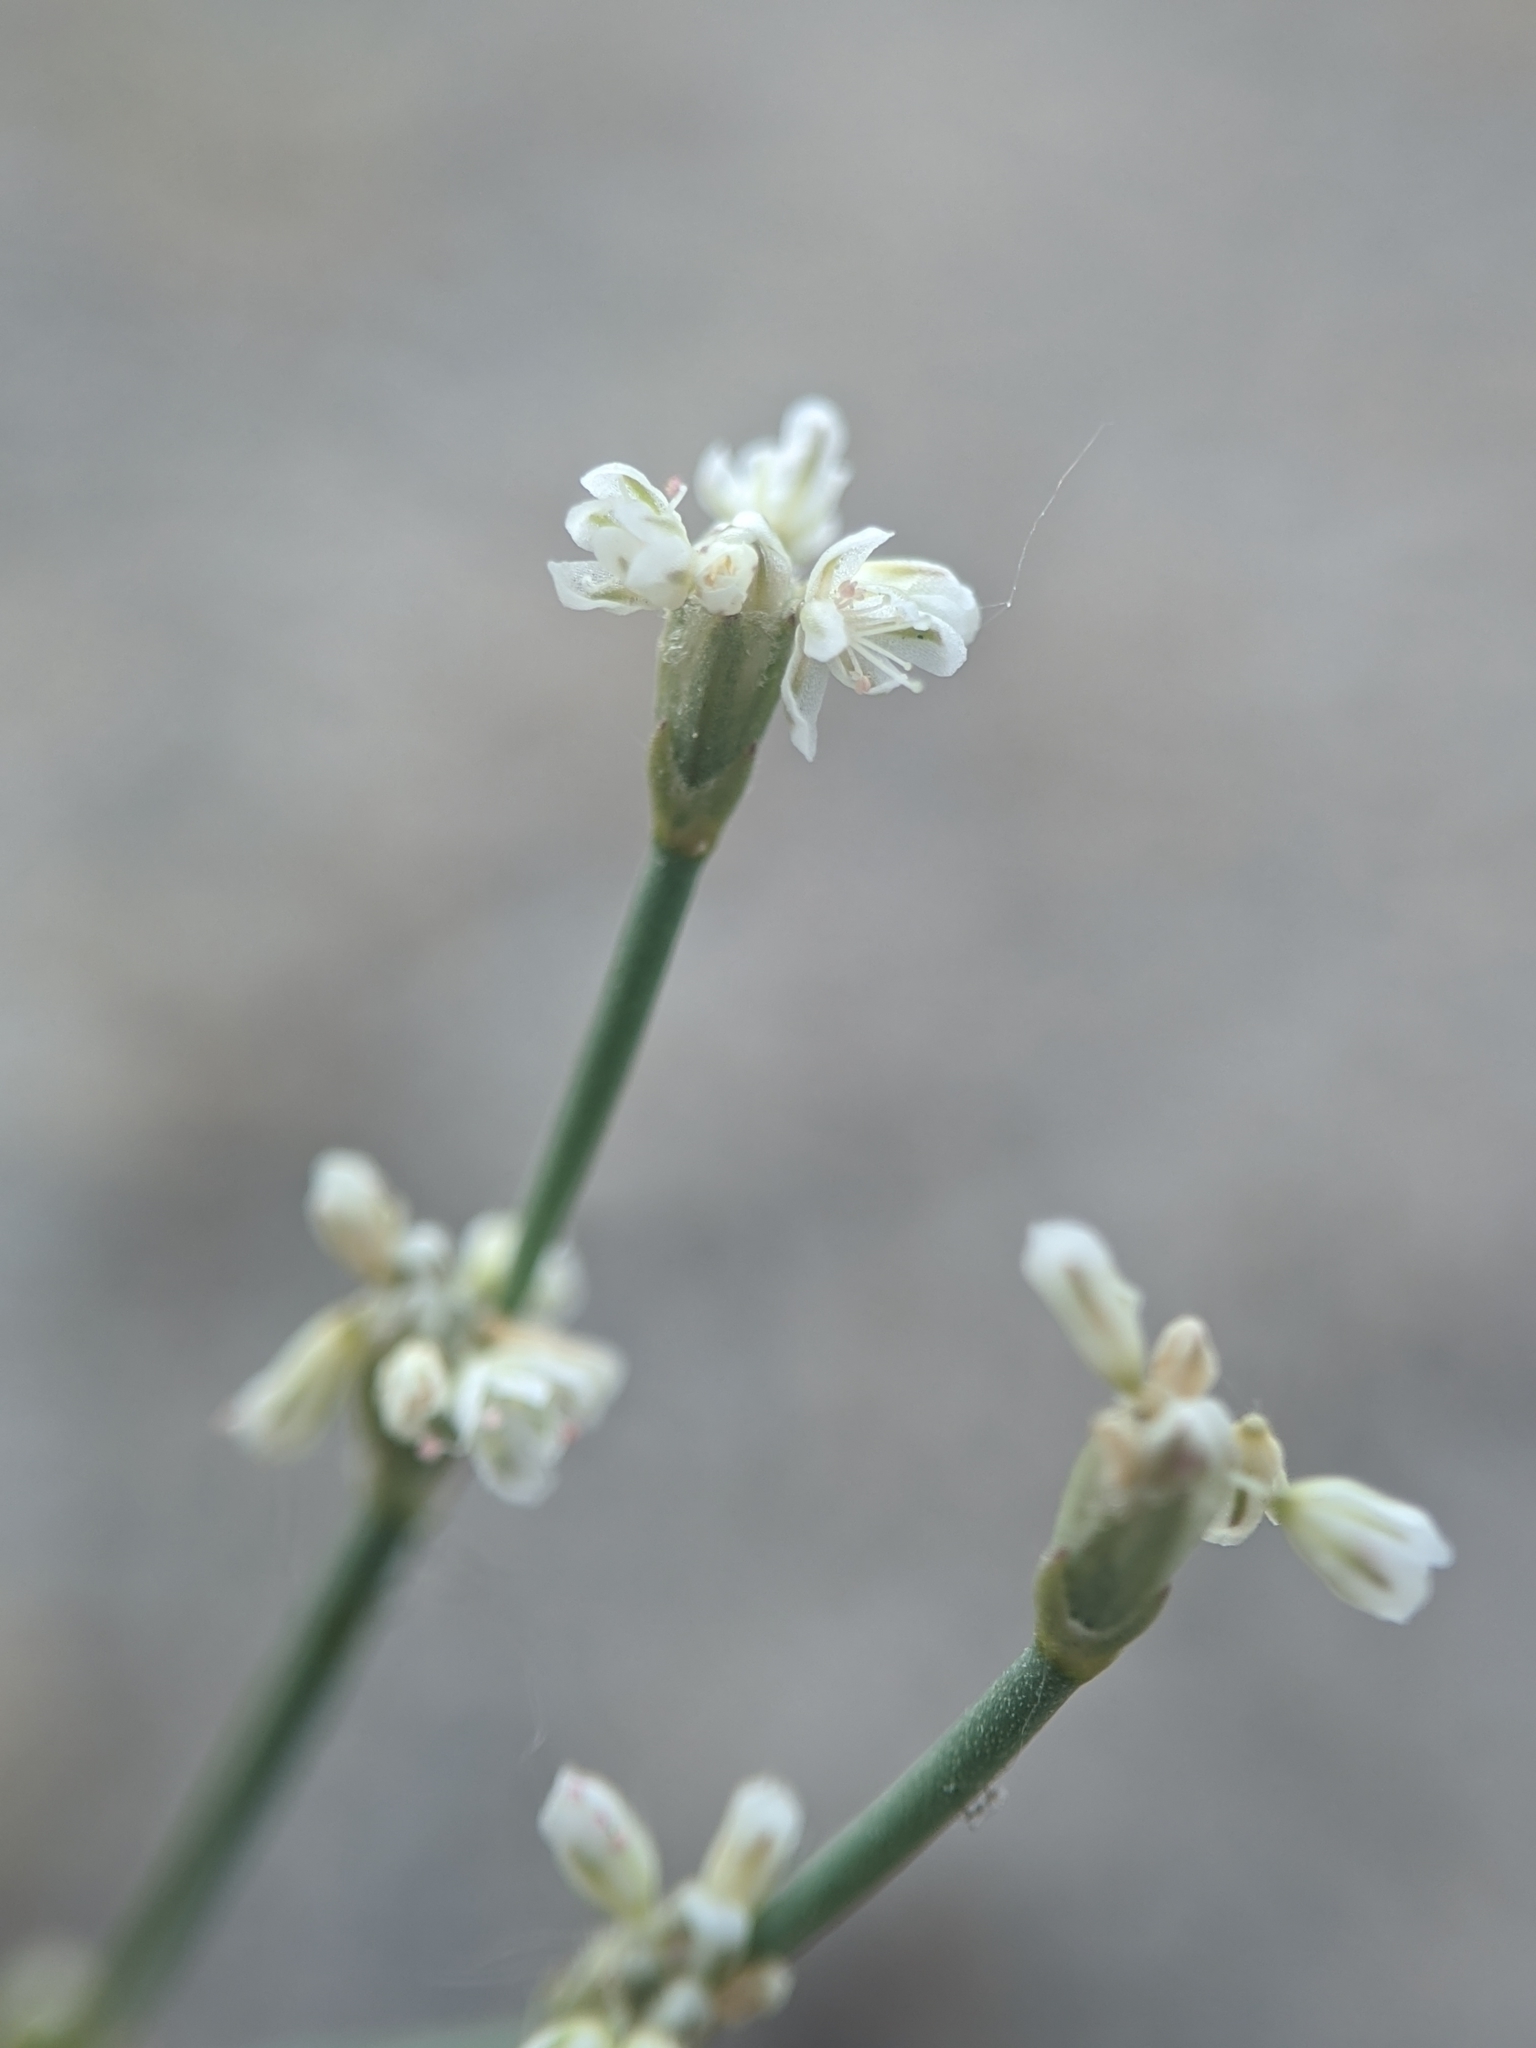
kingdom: Plantae
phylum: Tracheophyta
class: Magnoliopsida
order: Caryophyllales
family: Polygonaceae
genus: Eriogonum
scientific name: Eriogonum baileyi
